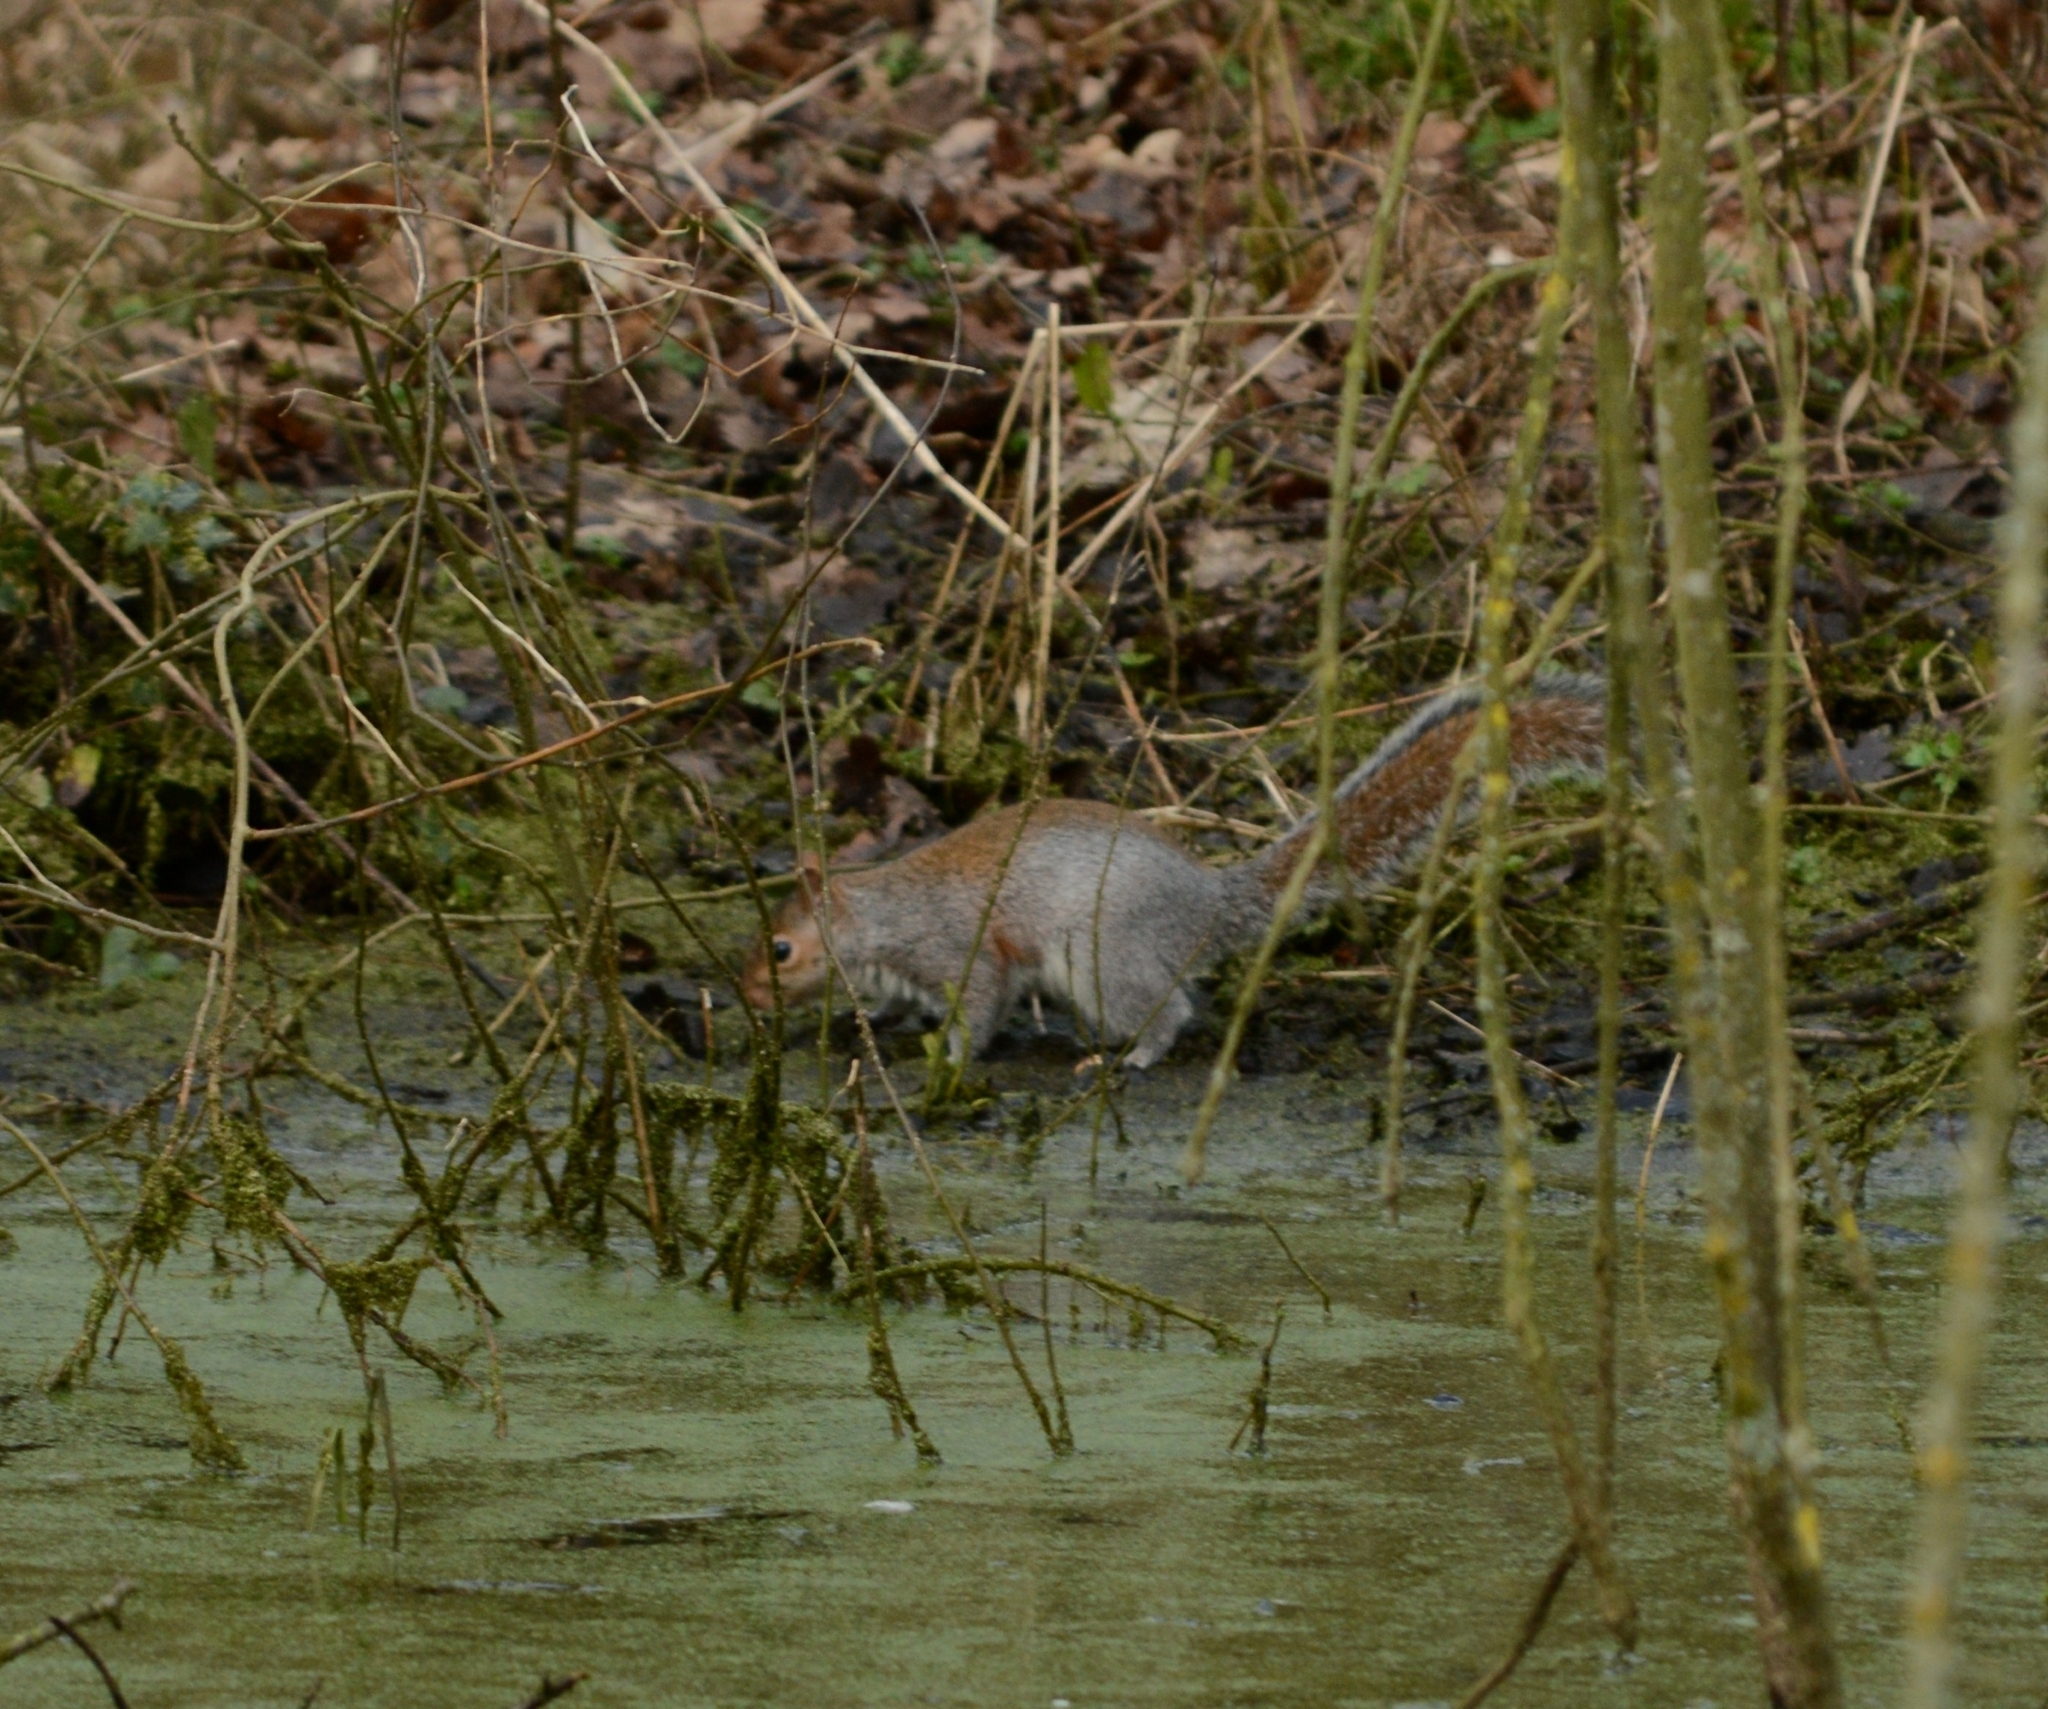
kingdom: Animalia
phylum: Chordata
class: Mammalia
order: Rodentia
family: Sciuridae
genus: Sciurus
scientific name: Sciurus carolinensis
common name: Eastern gray squirrel
